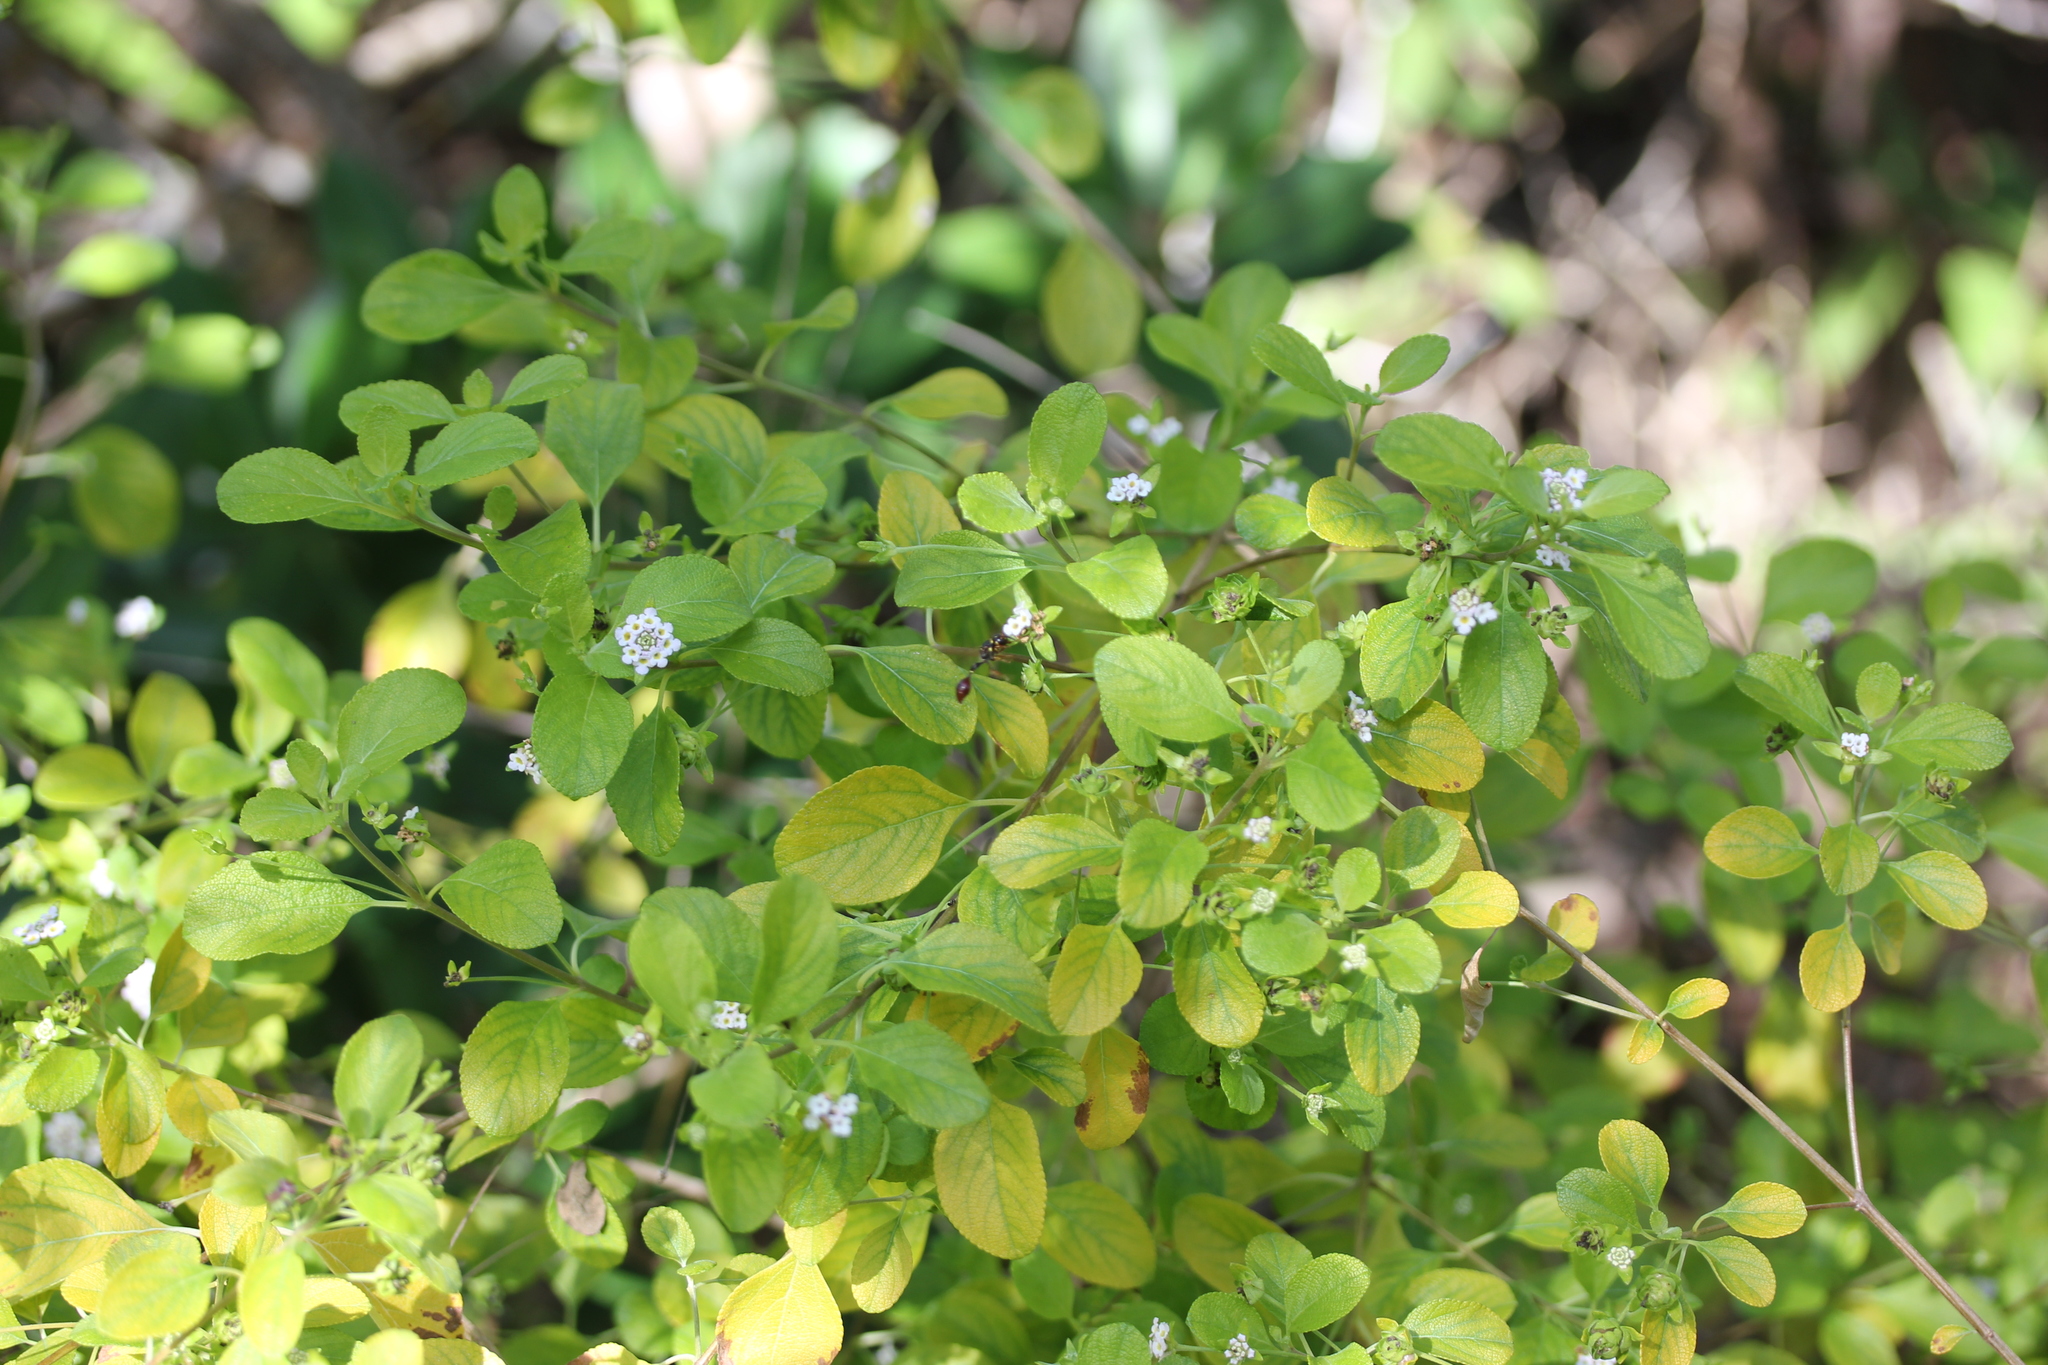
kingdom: Plantae
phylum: Tracheophyta
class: Magnoliopsida
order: Lamiales
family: Verbenaceae
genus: Lantana
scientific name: Lantana involucrata
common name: Black sage
